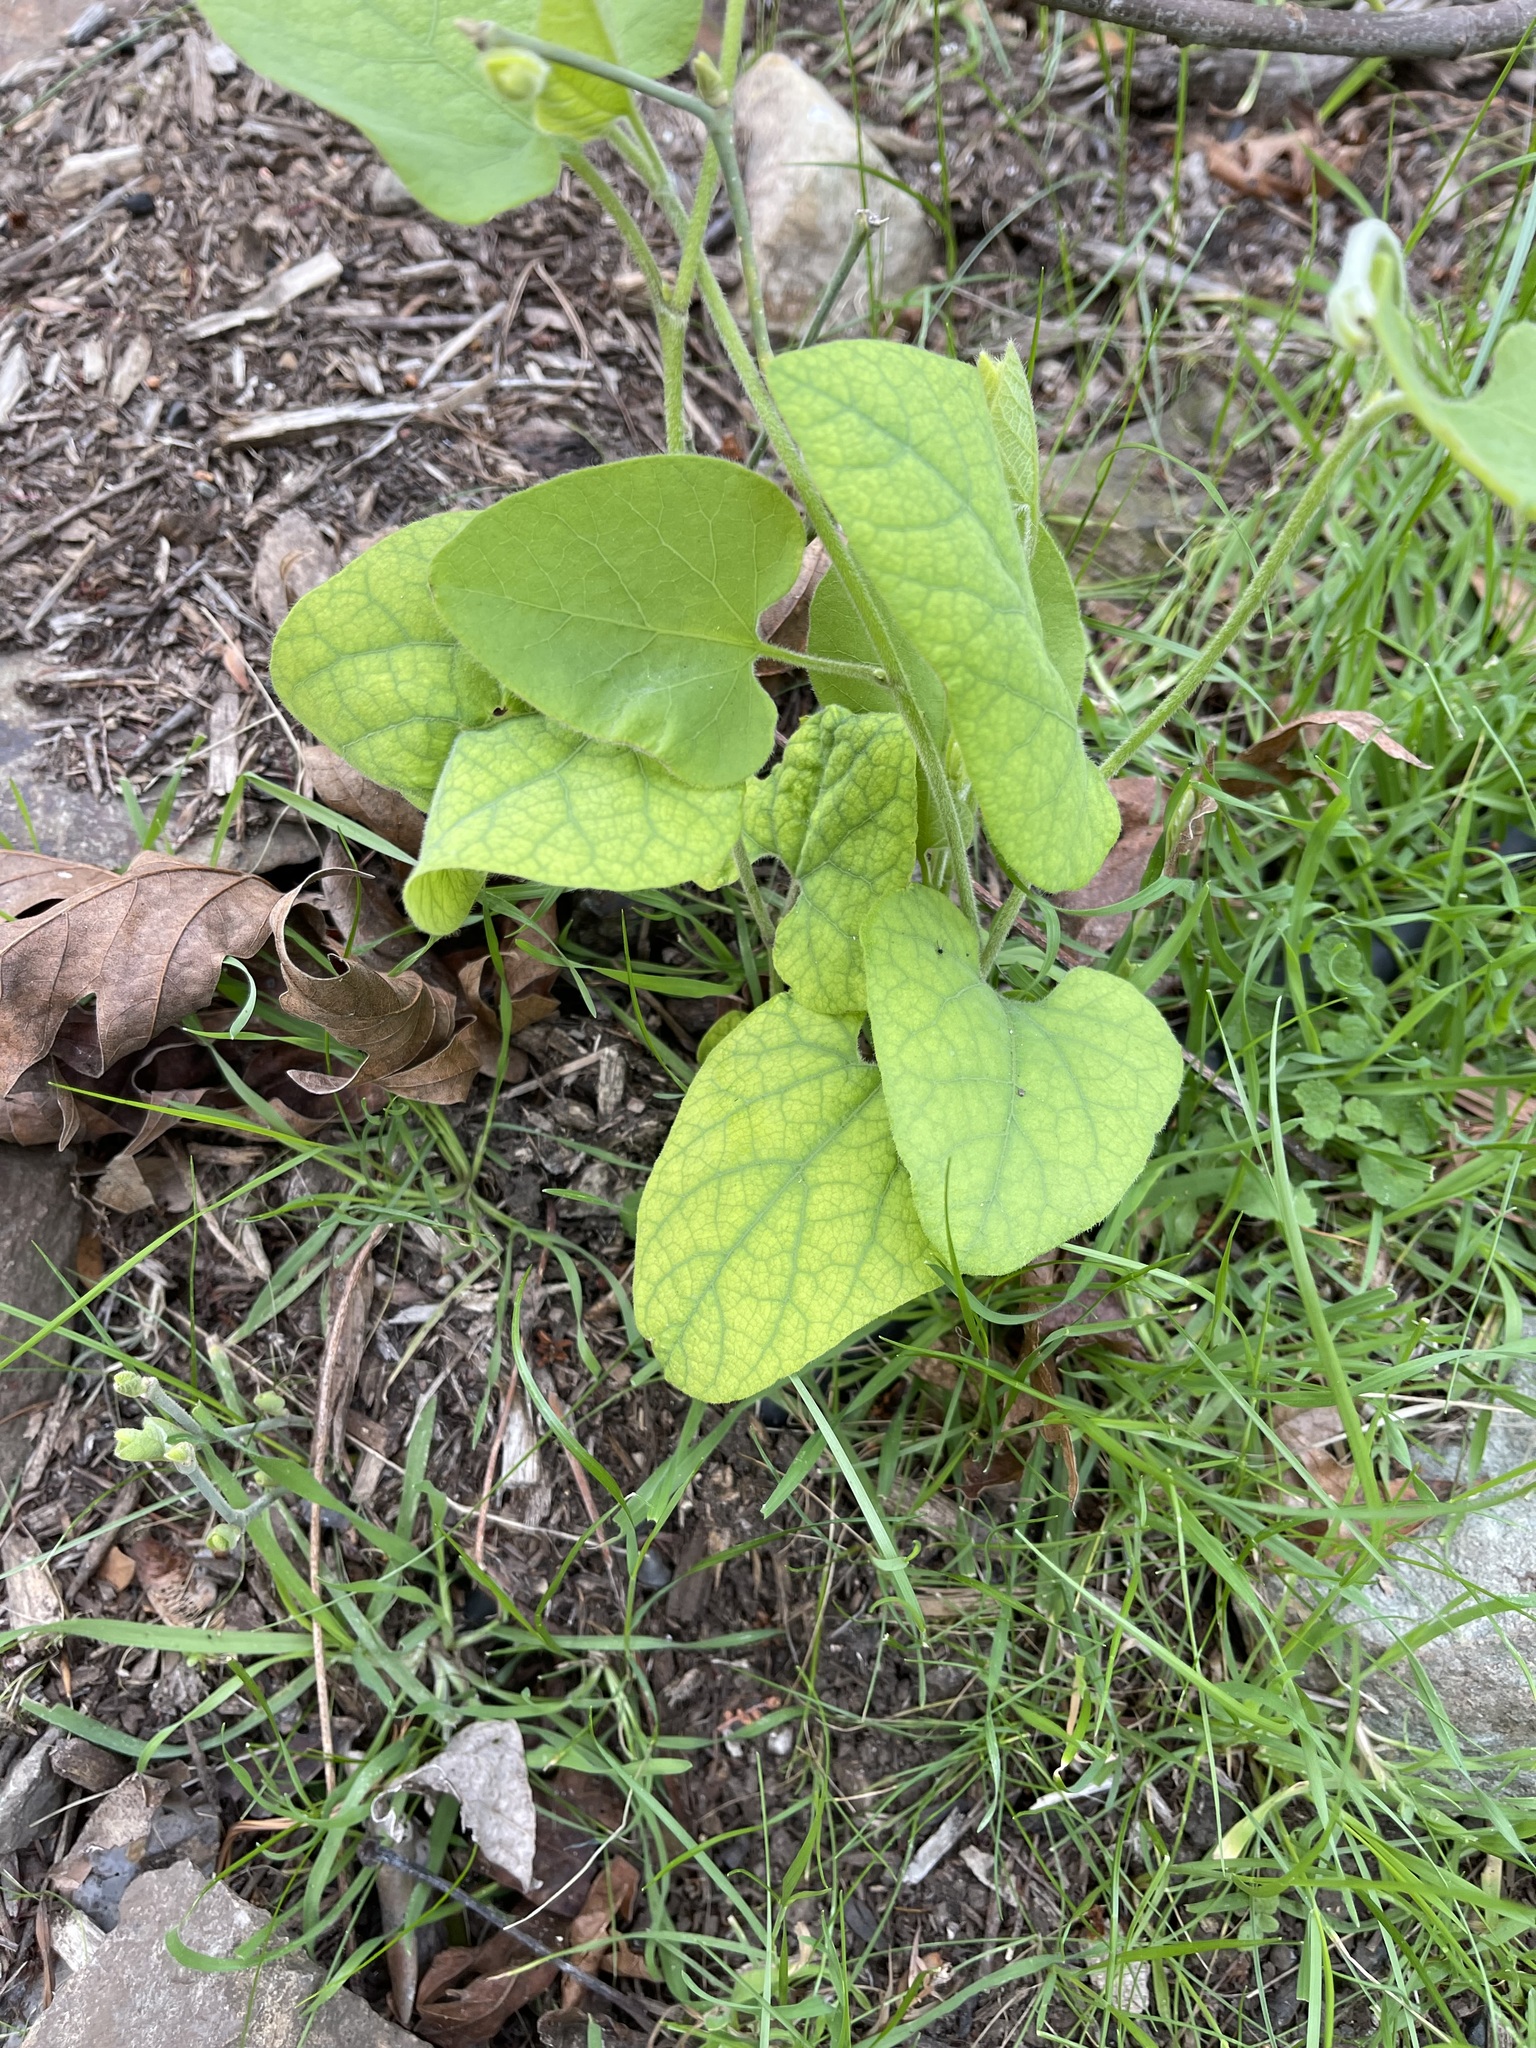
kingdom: Plantae
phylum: Tracheophyta
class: Magnoliopsida
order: Piperales
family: Aristolochiaceae
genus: Isotrema
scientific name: Isotrema californicum
